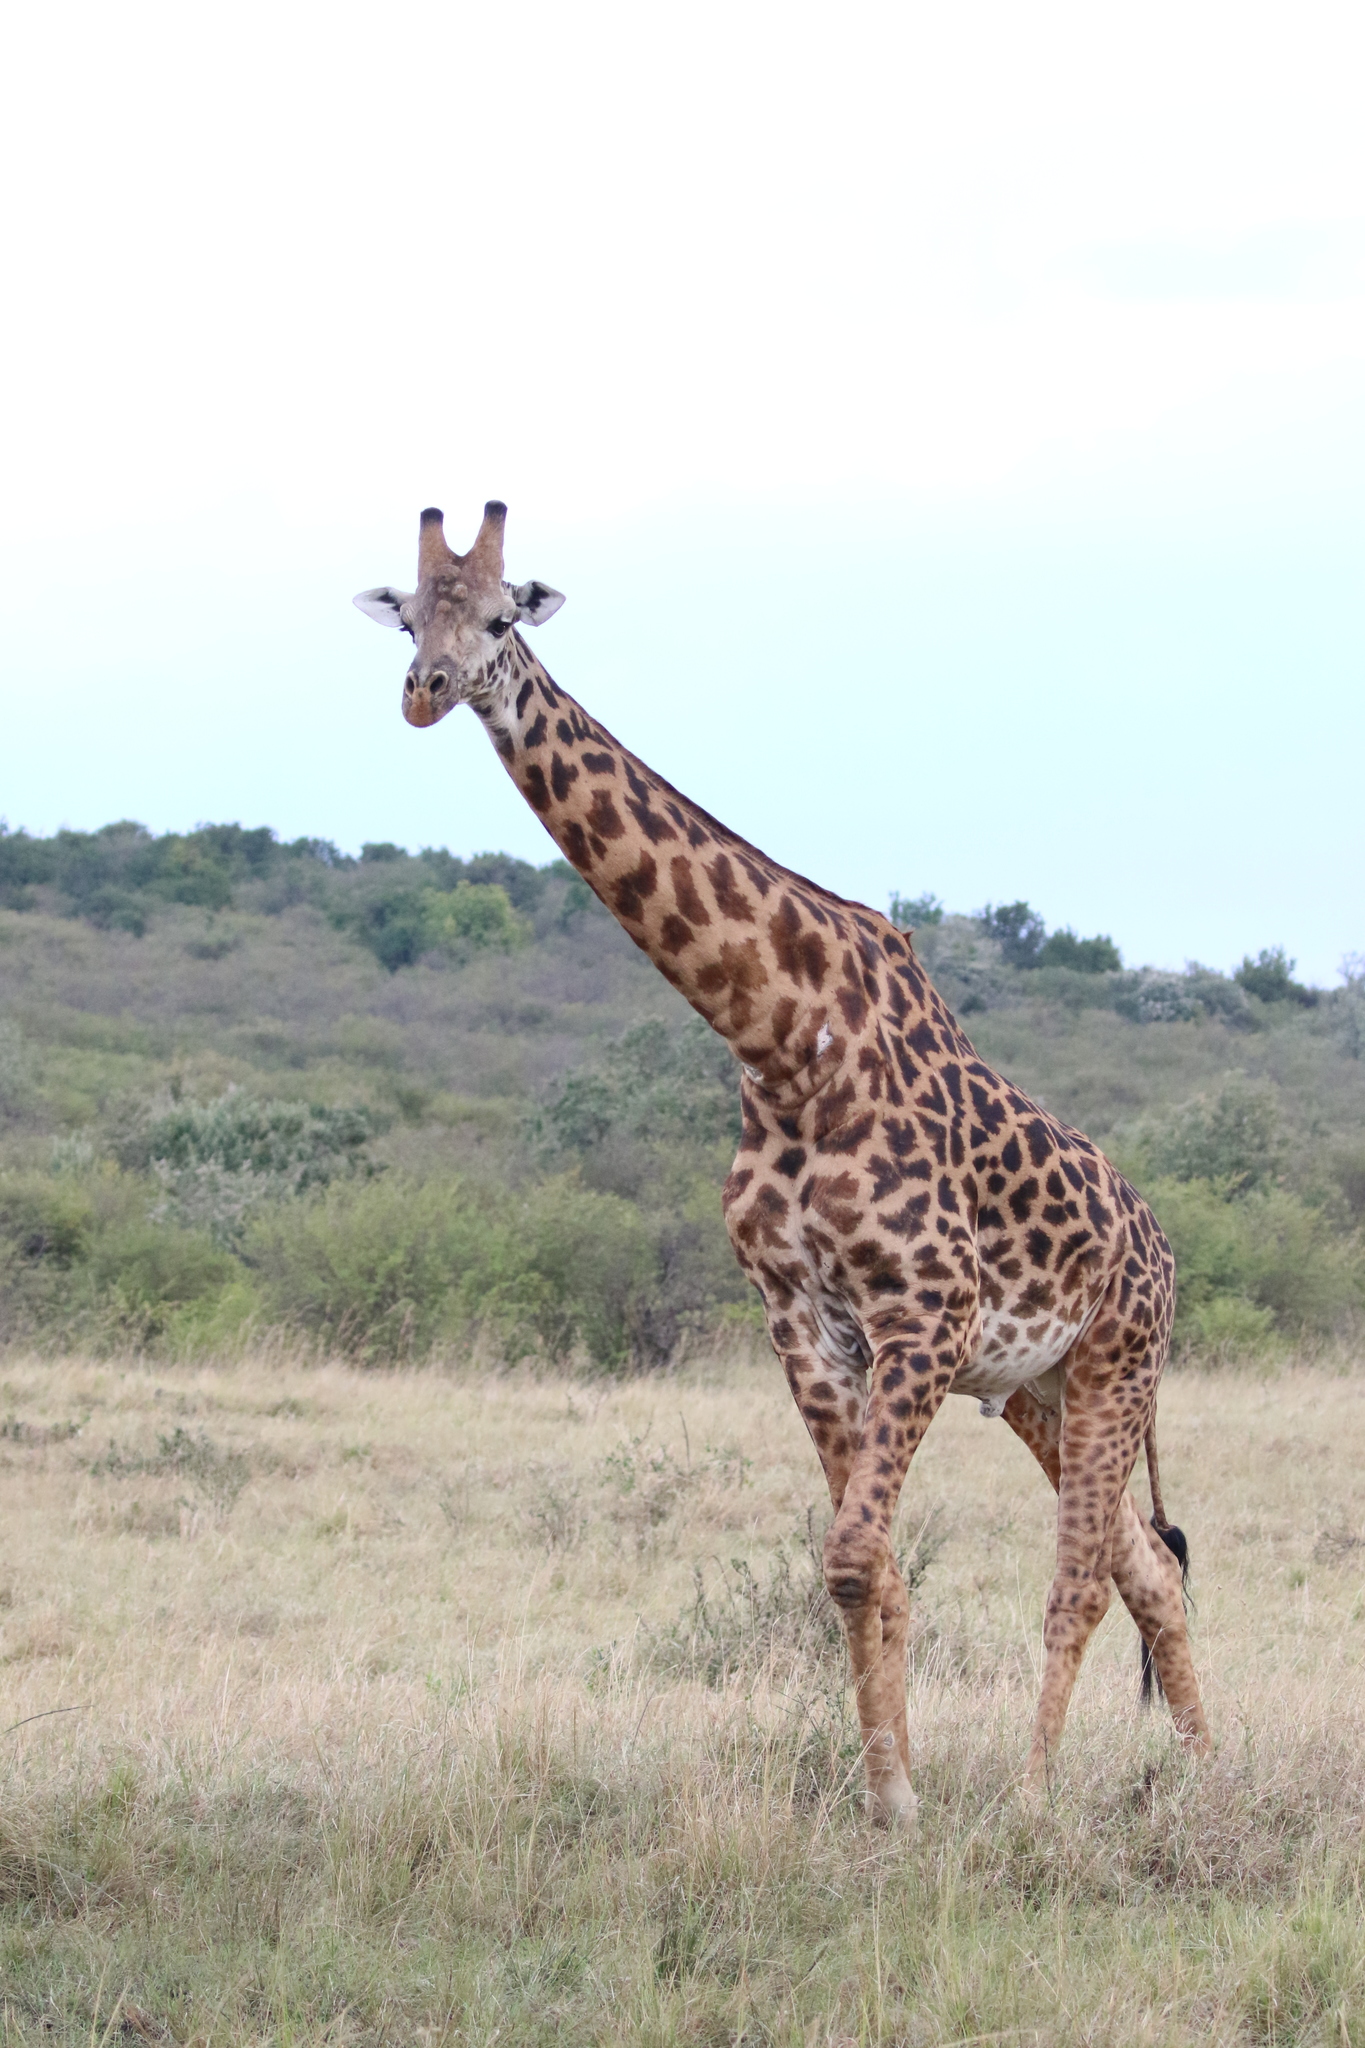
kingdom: Animalia
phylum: Chordata
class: Mammalia
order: Artiodactyla
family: Giraffidae
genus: Giraffa
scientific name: Giraffa tippelskirchi
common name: Masai giraffe
